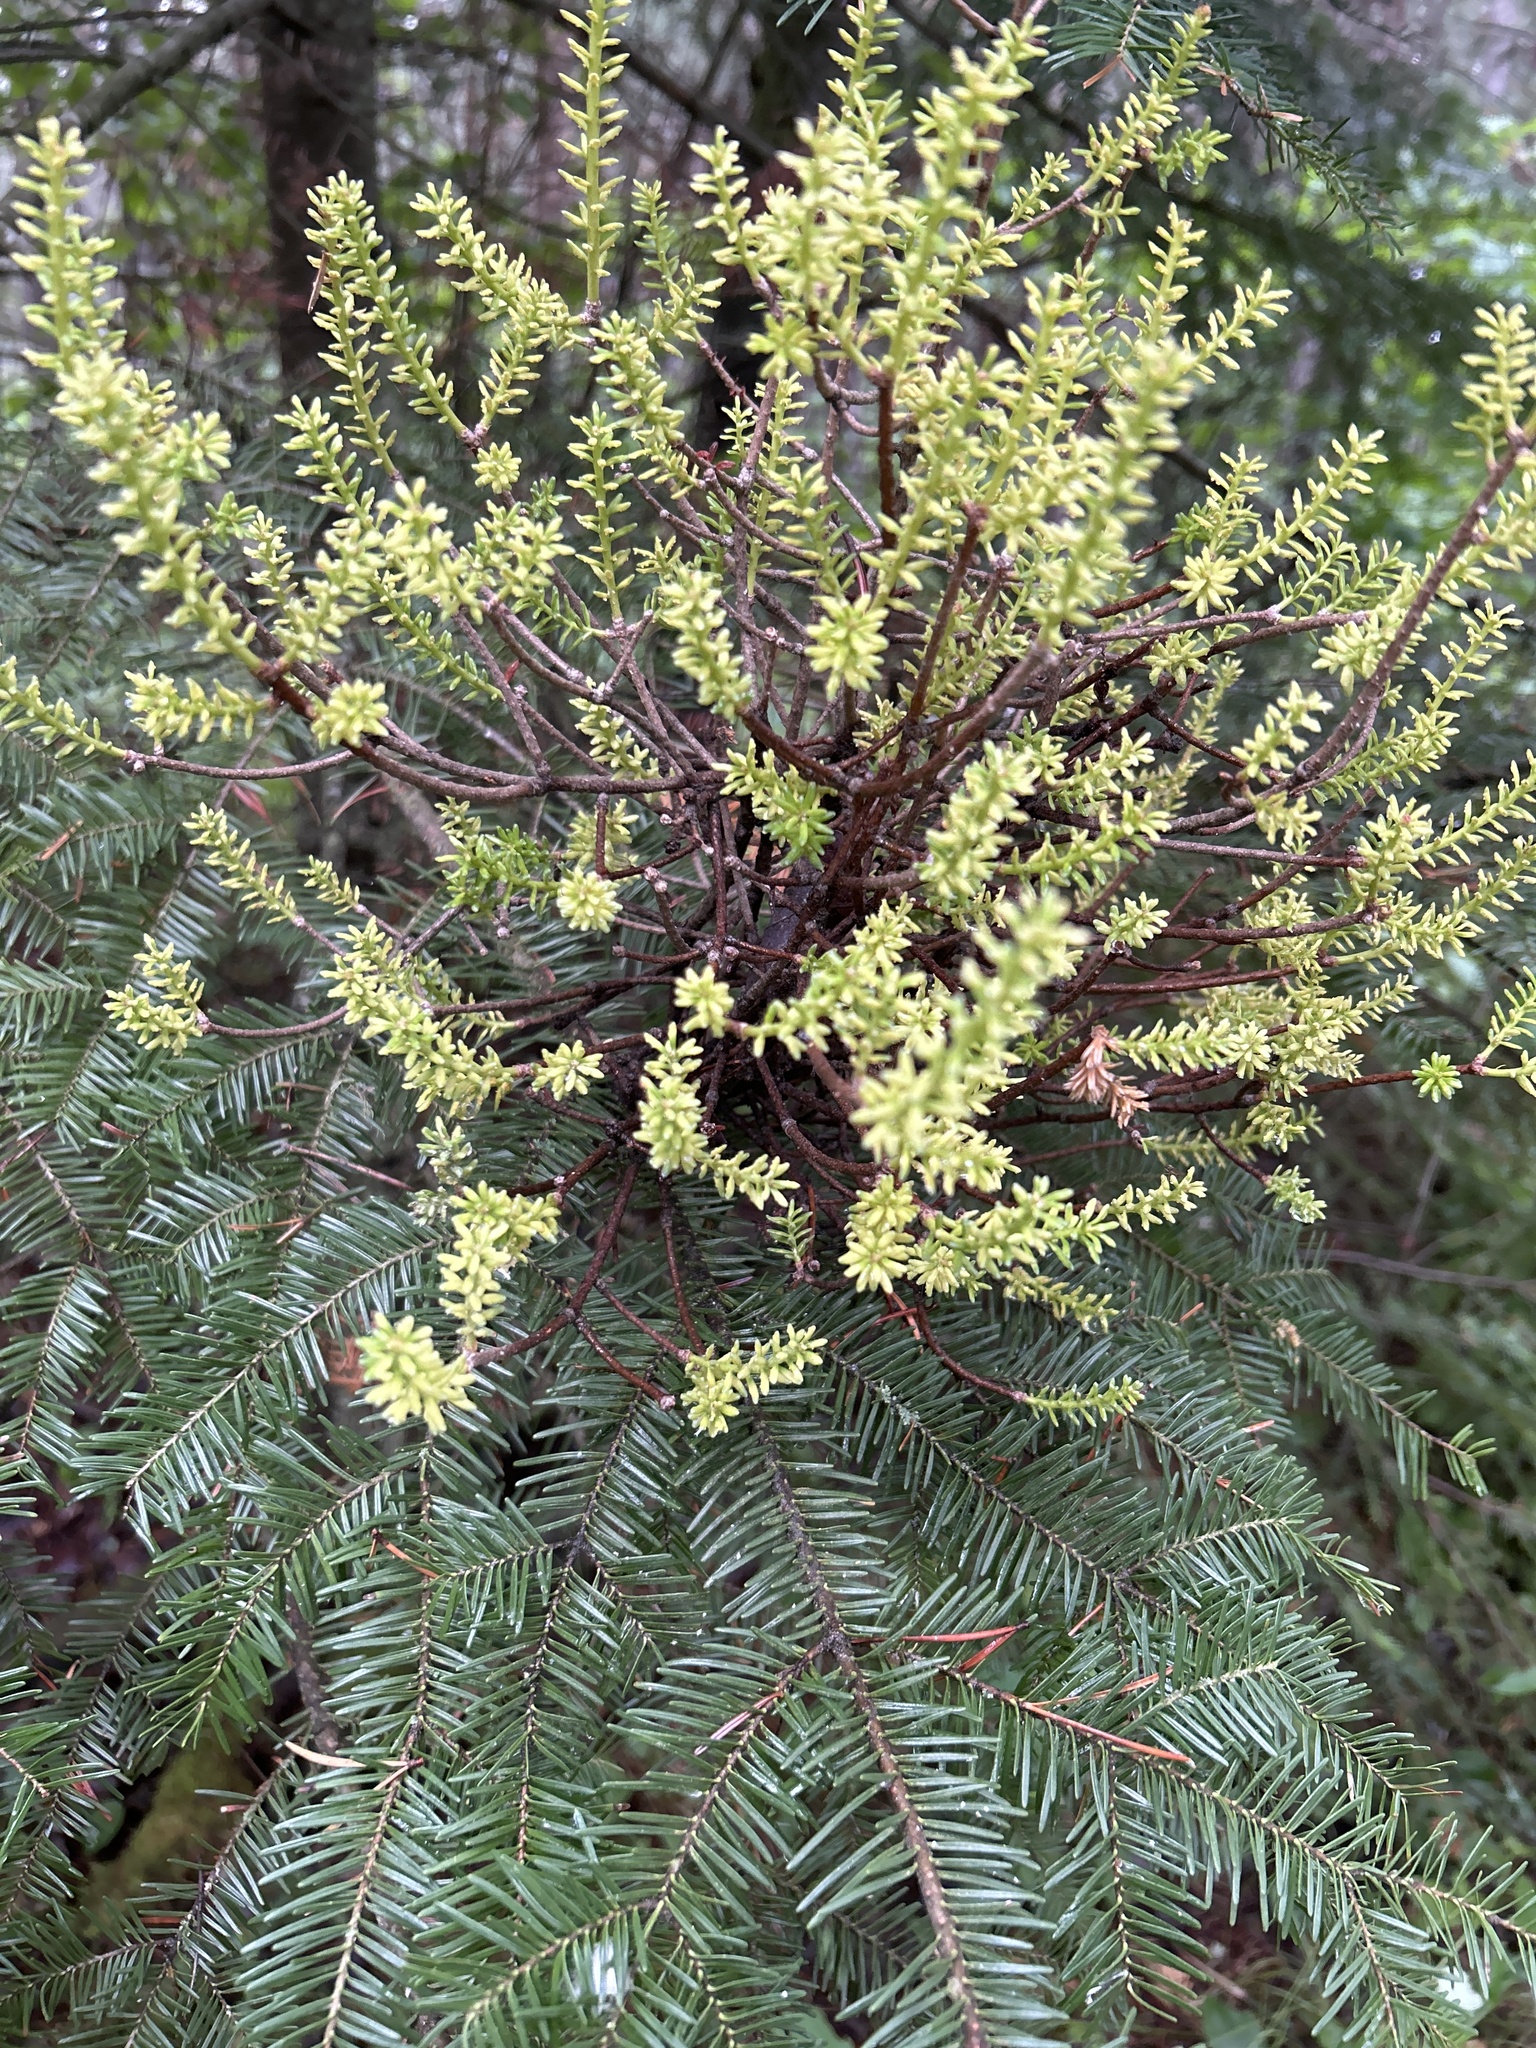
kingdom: Fungi
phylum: Basidiomycota
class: Pucciniomycetes
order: Pucciniales
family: Pucciniastraceae
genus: Melampsorella
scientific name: Melampsorella elatina
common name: Fir broom rust
